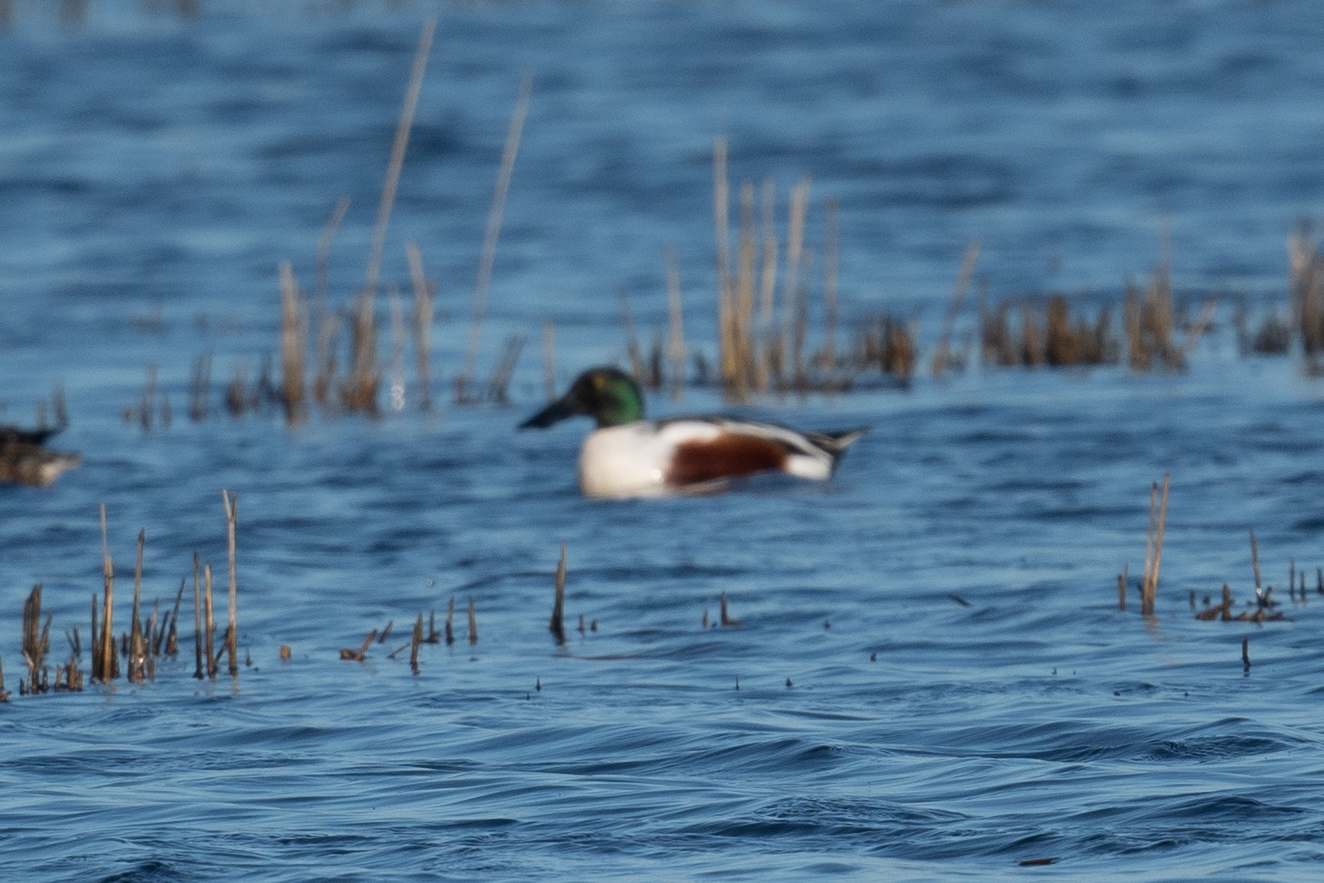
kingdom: Animalia
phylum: Chordata
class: Aves
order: Anseriformes
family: Anatidae
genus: Spatula
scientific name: Spatula clypeata
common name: Northern shoveler
